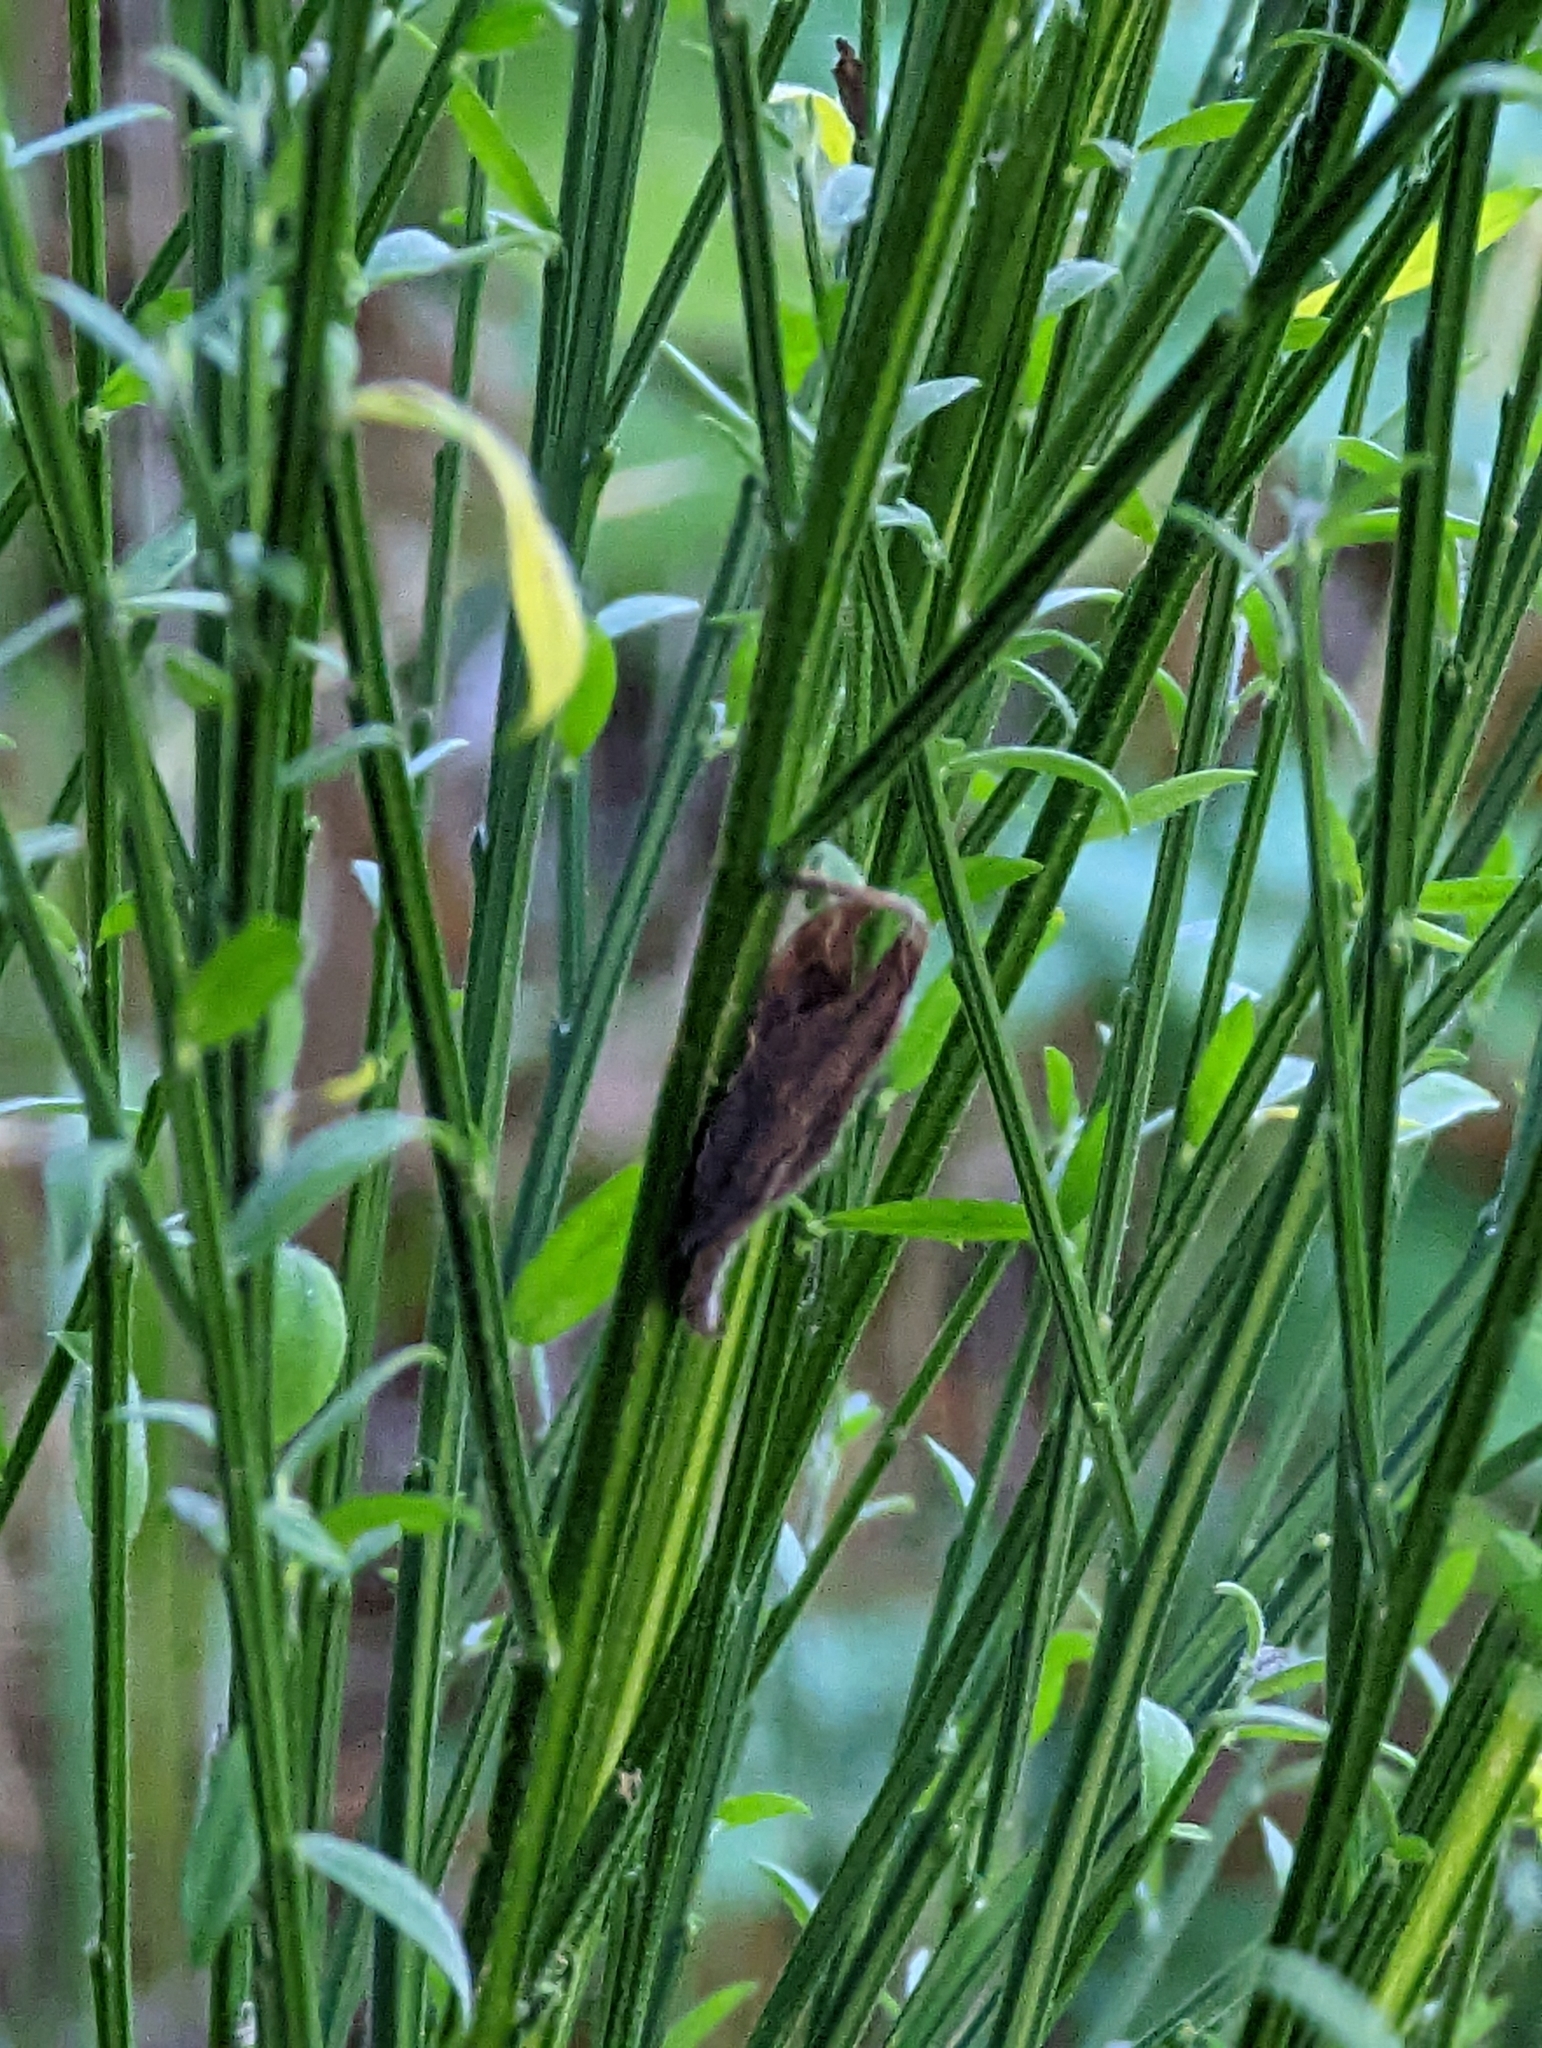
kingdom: Plantae
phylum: Tracheophyta
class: Magnoliopsida
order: Fabales
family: Fabaceae
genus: Cytisus
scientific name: Cytisus scoparius
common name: Scotch broom
